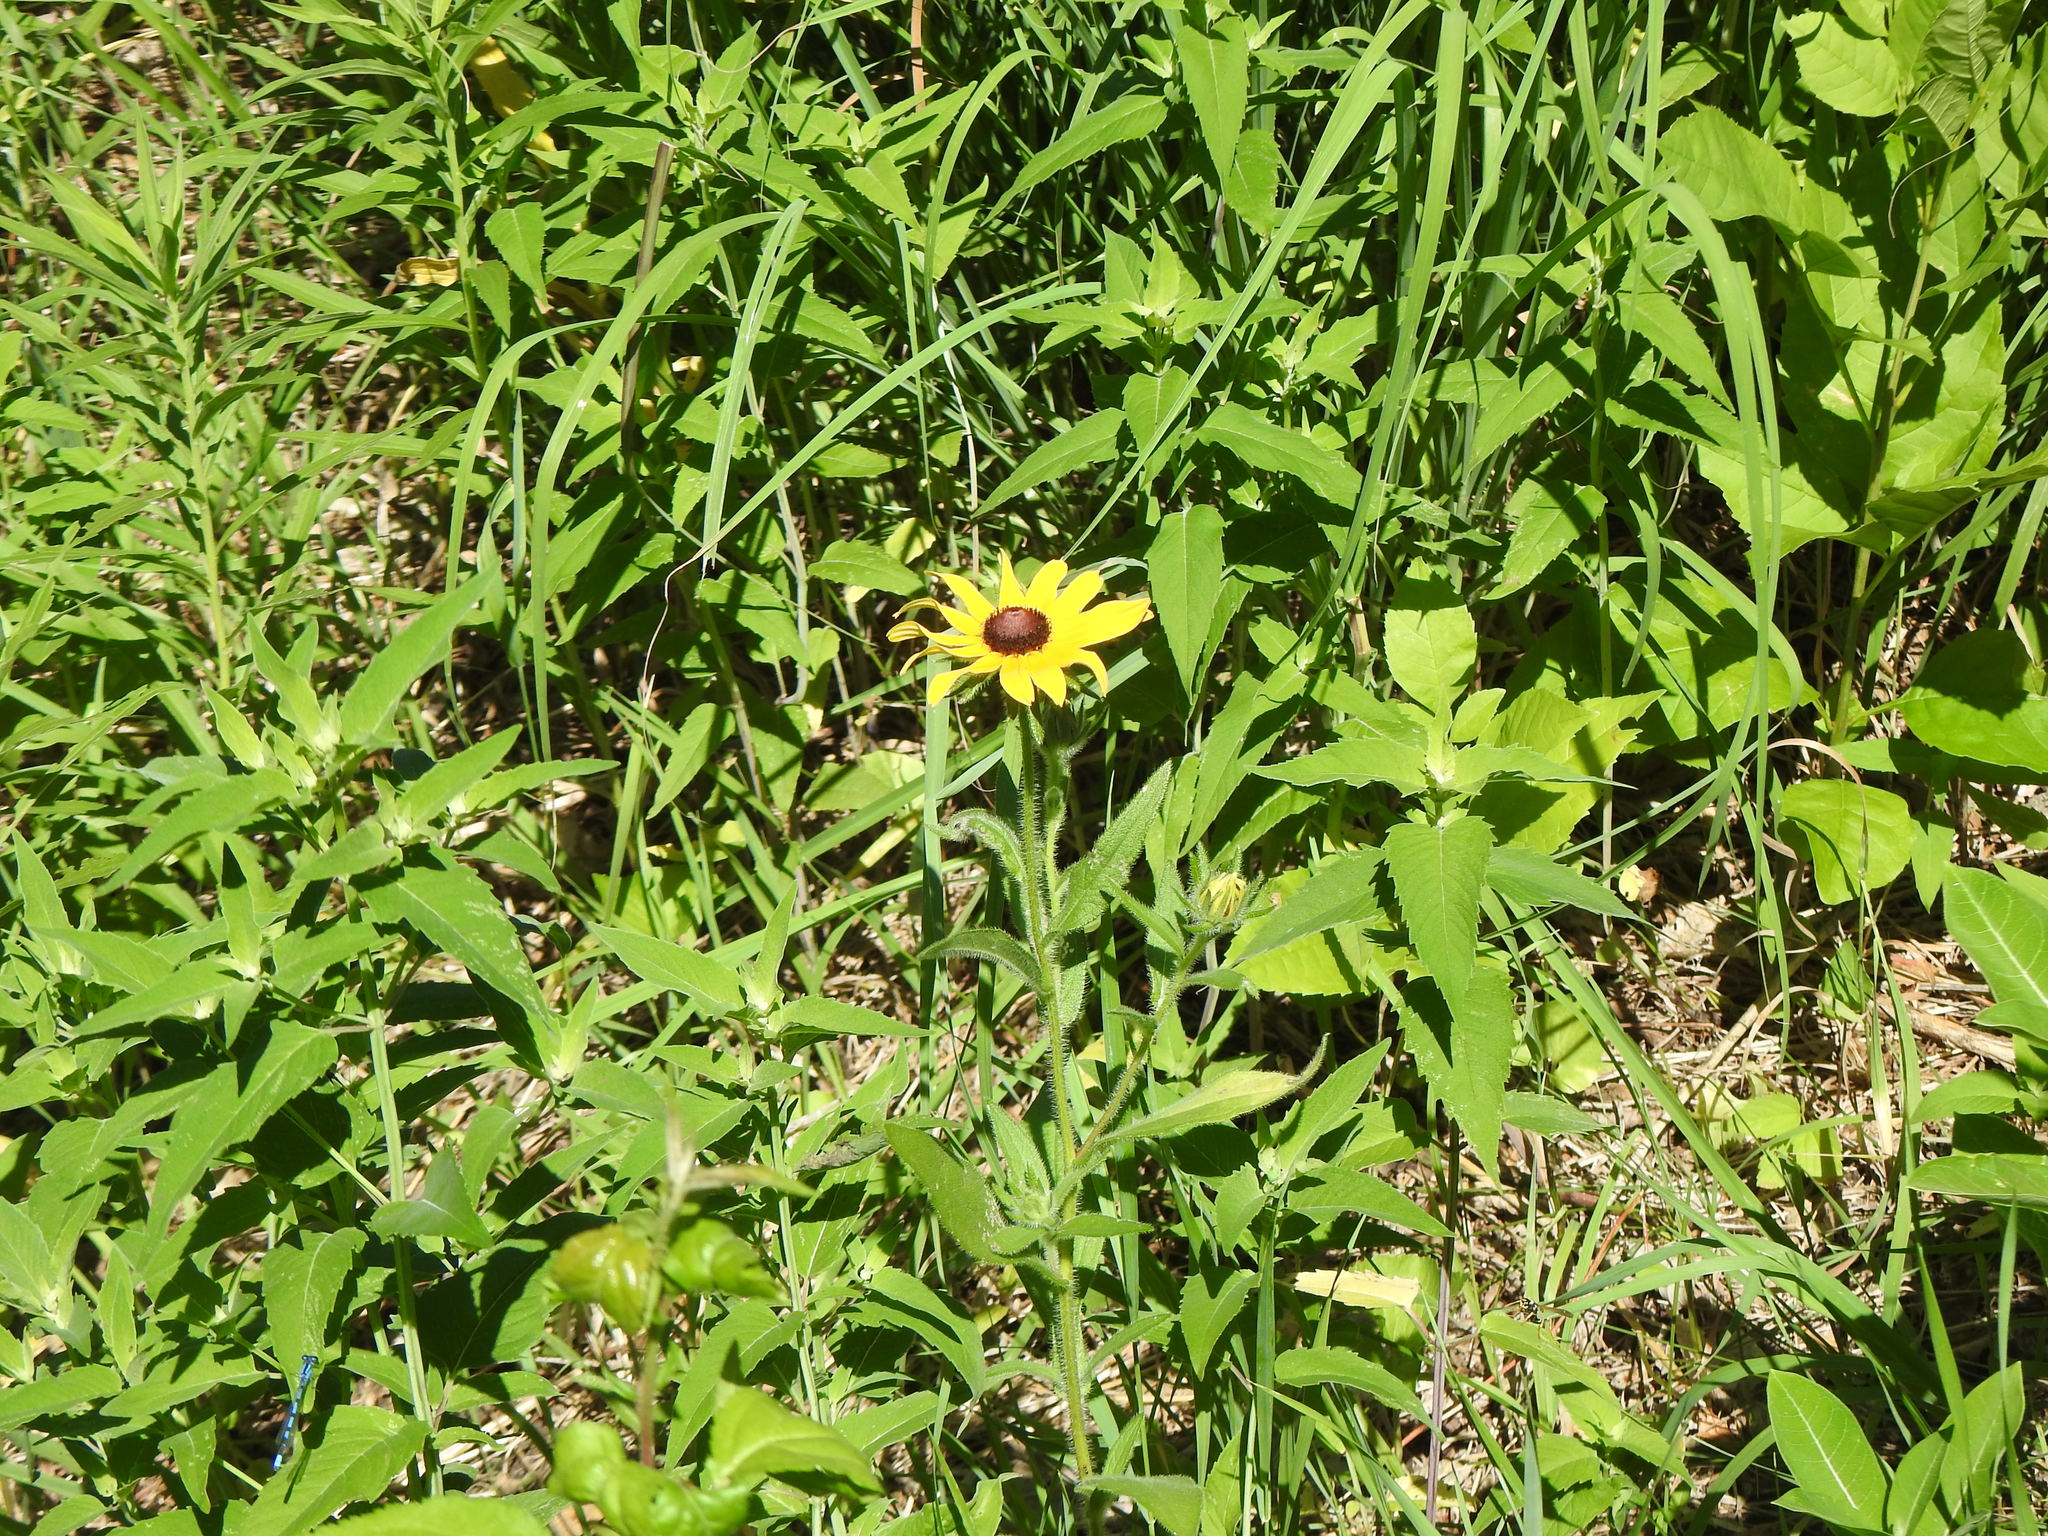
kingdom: Plantae
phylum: Tracheophyta
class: Magnoliopsida
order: Asterales
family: Asteraceae
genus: Rudbeckia
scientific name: Rudbeckia hirta
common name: Black-eyed-susan
